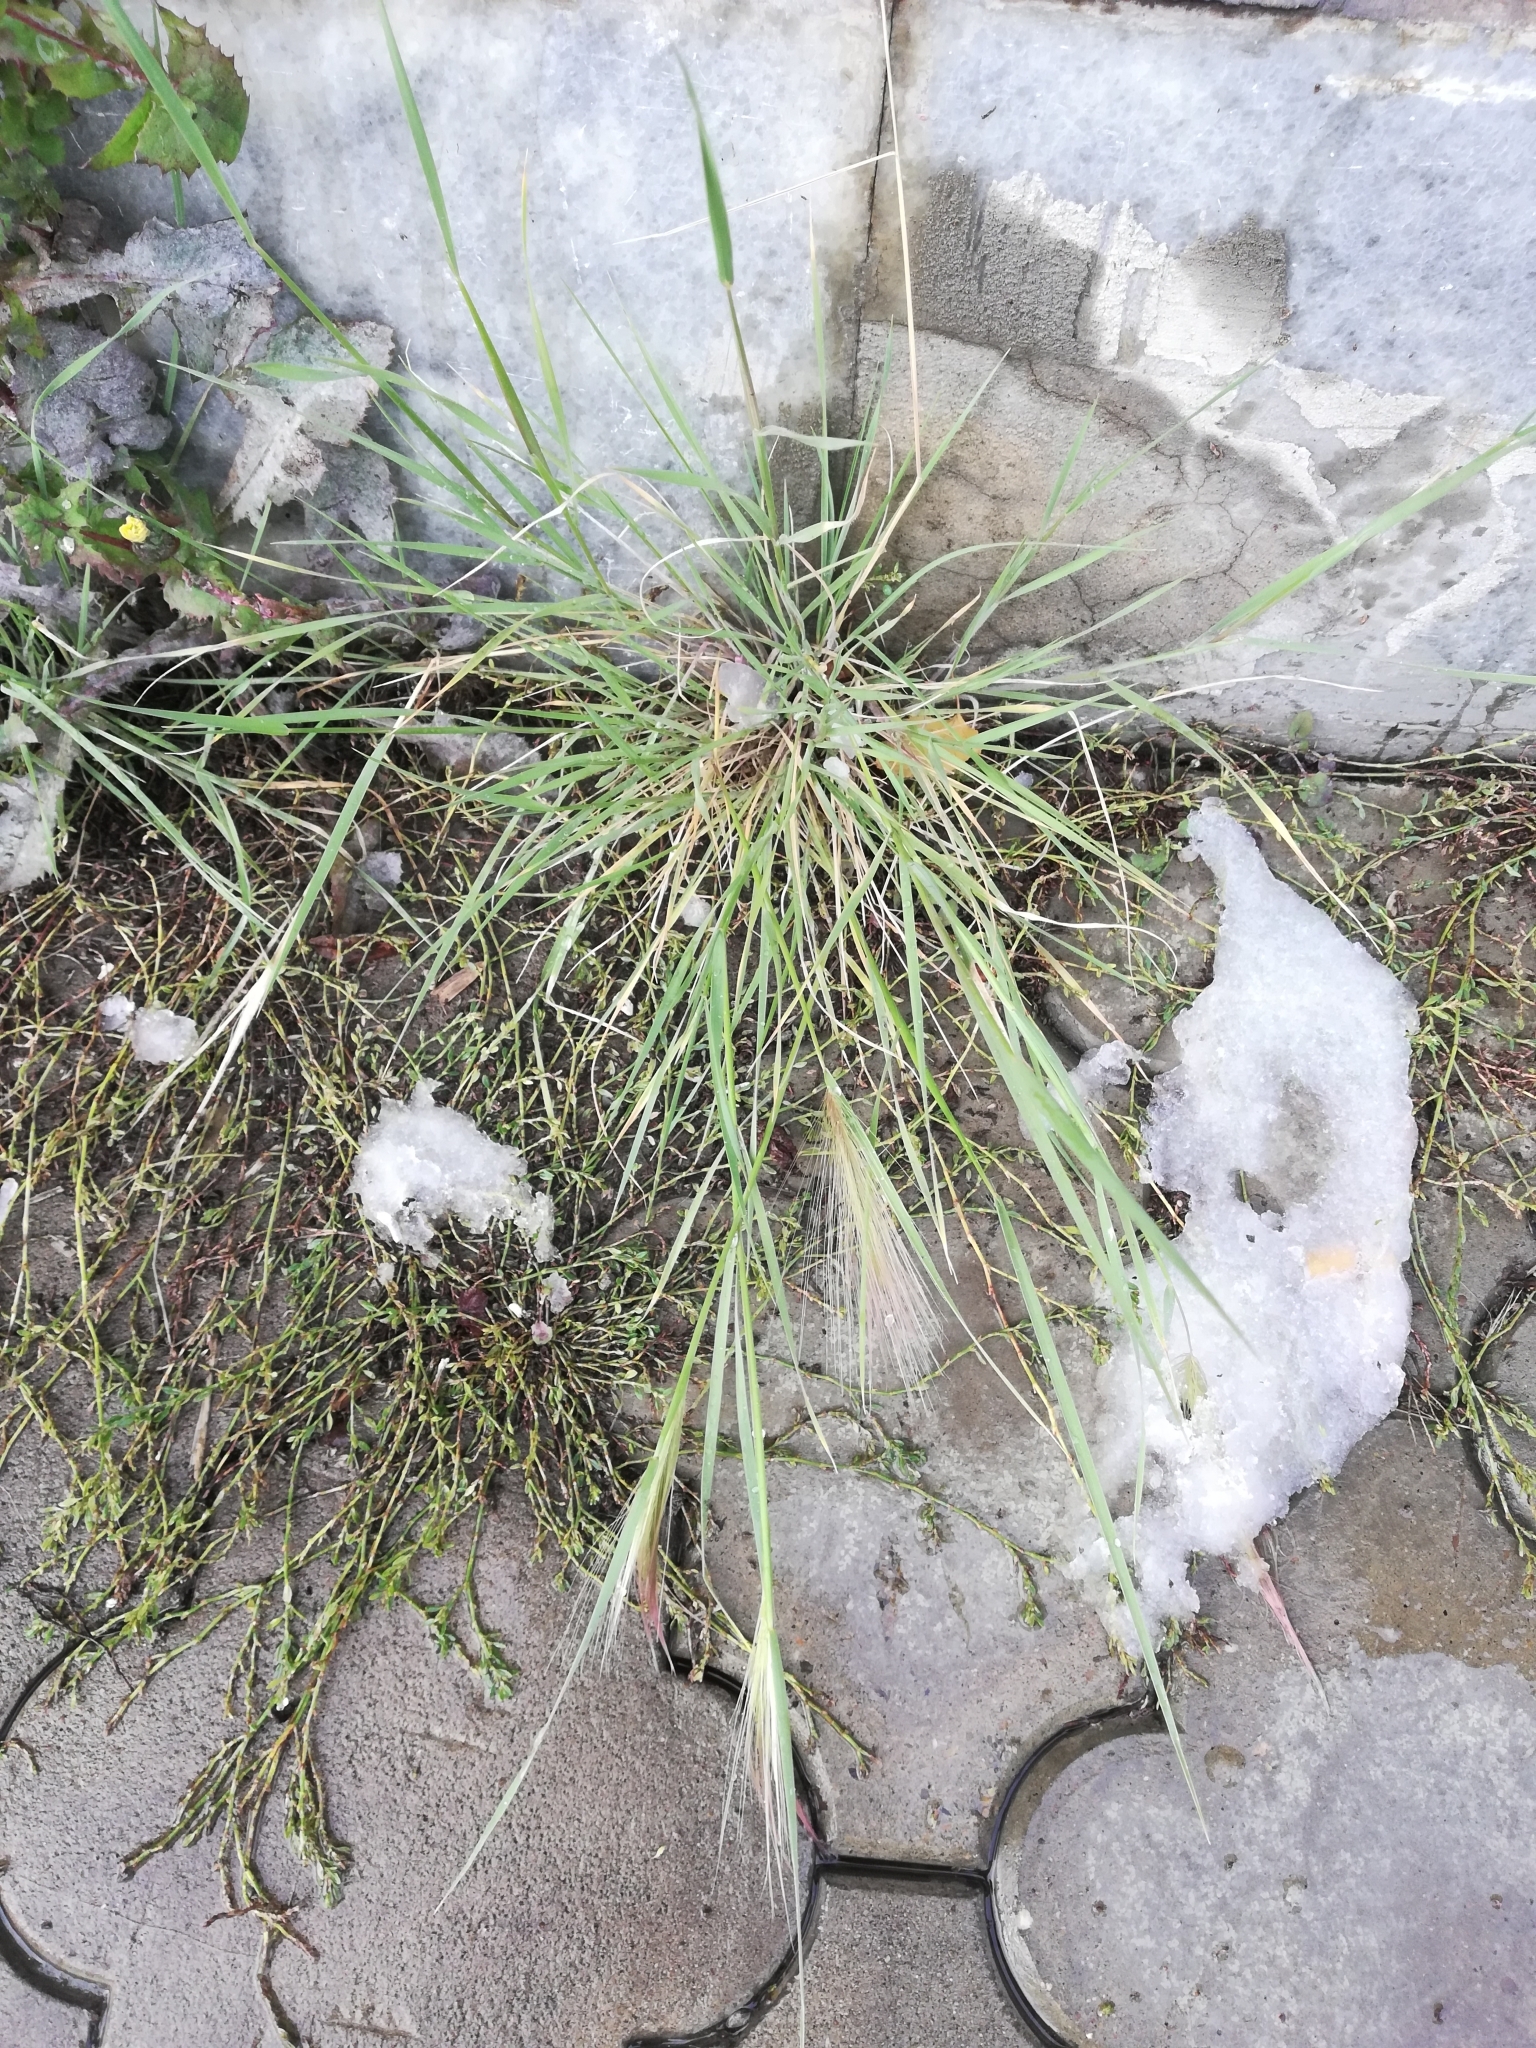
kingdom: Plantae
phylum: Tracheophyta
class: Liliopsida
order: Poales
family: Poaceae
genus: Hordeum
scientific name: Hordeum jubatum
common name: Foxtail barley
